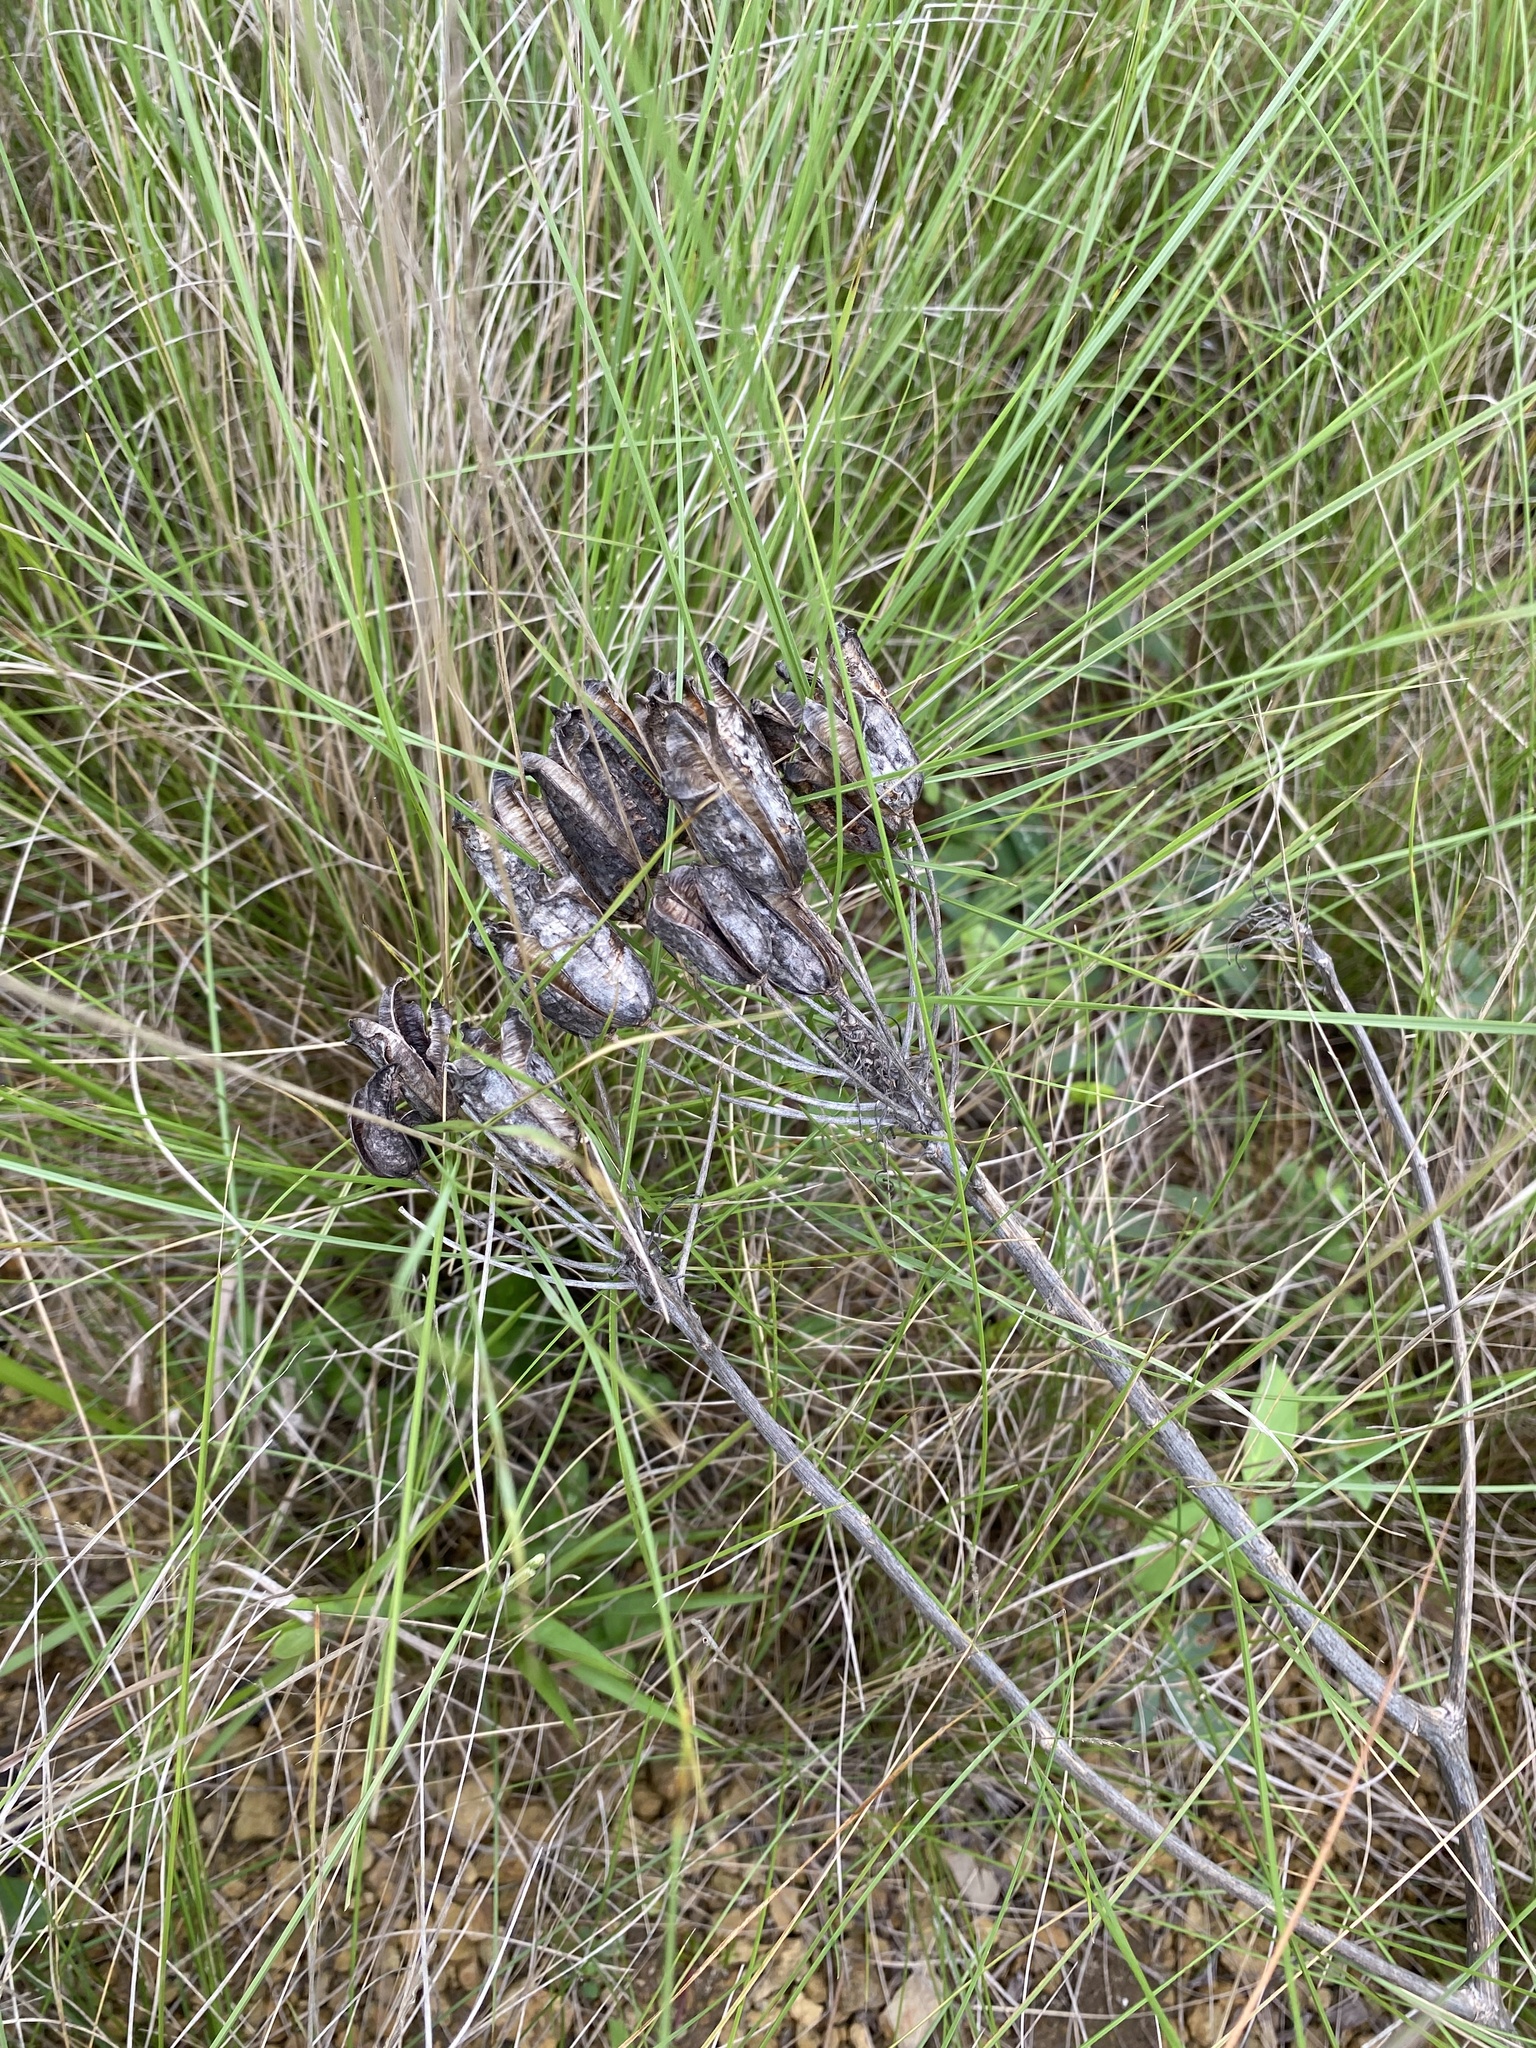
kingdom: Plantae
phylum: Tracheophyta
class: Liliopsida
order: Asparagales
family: Asphodelaceae
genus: Aloe
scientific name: Aloe maculata
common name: Broadleaf aloe
